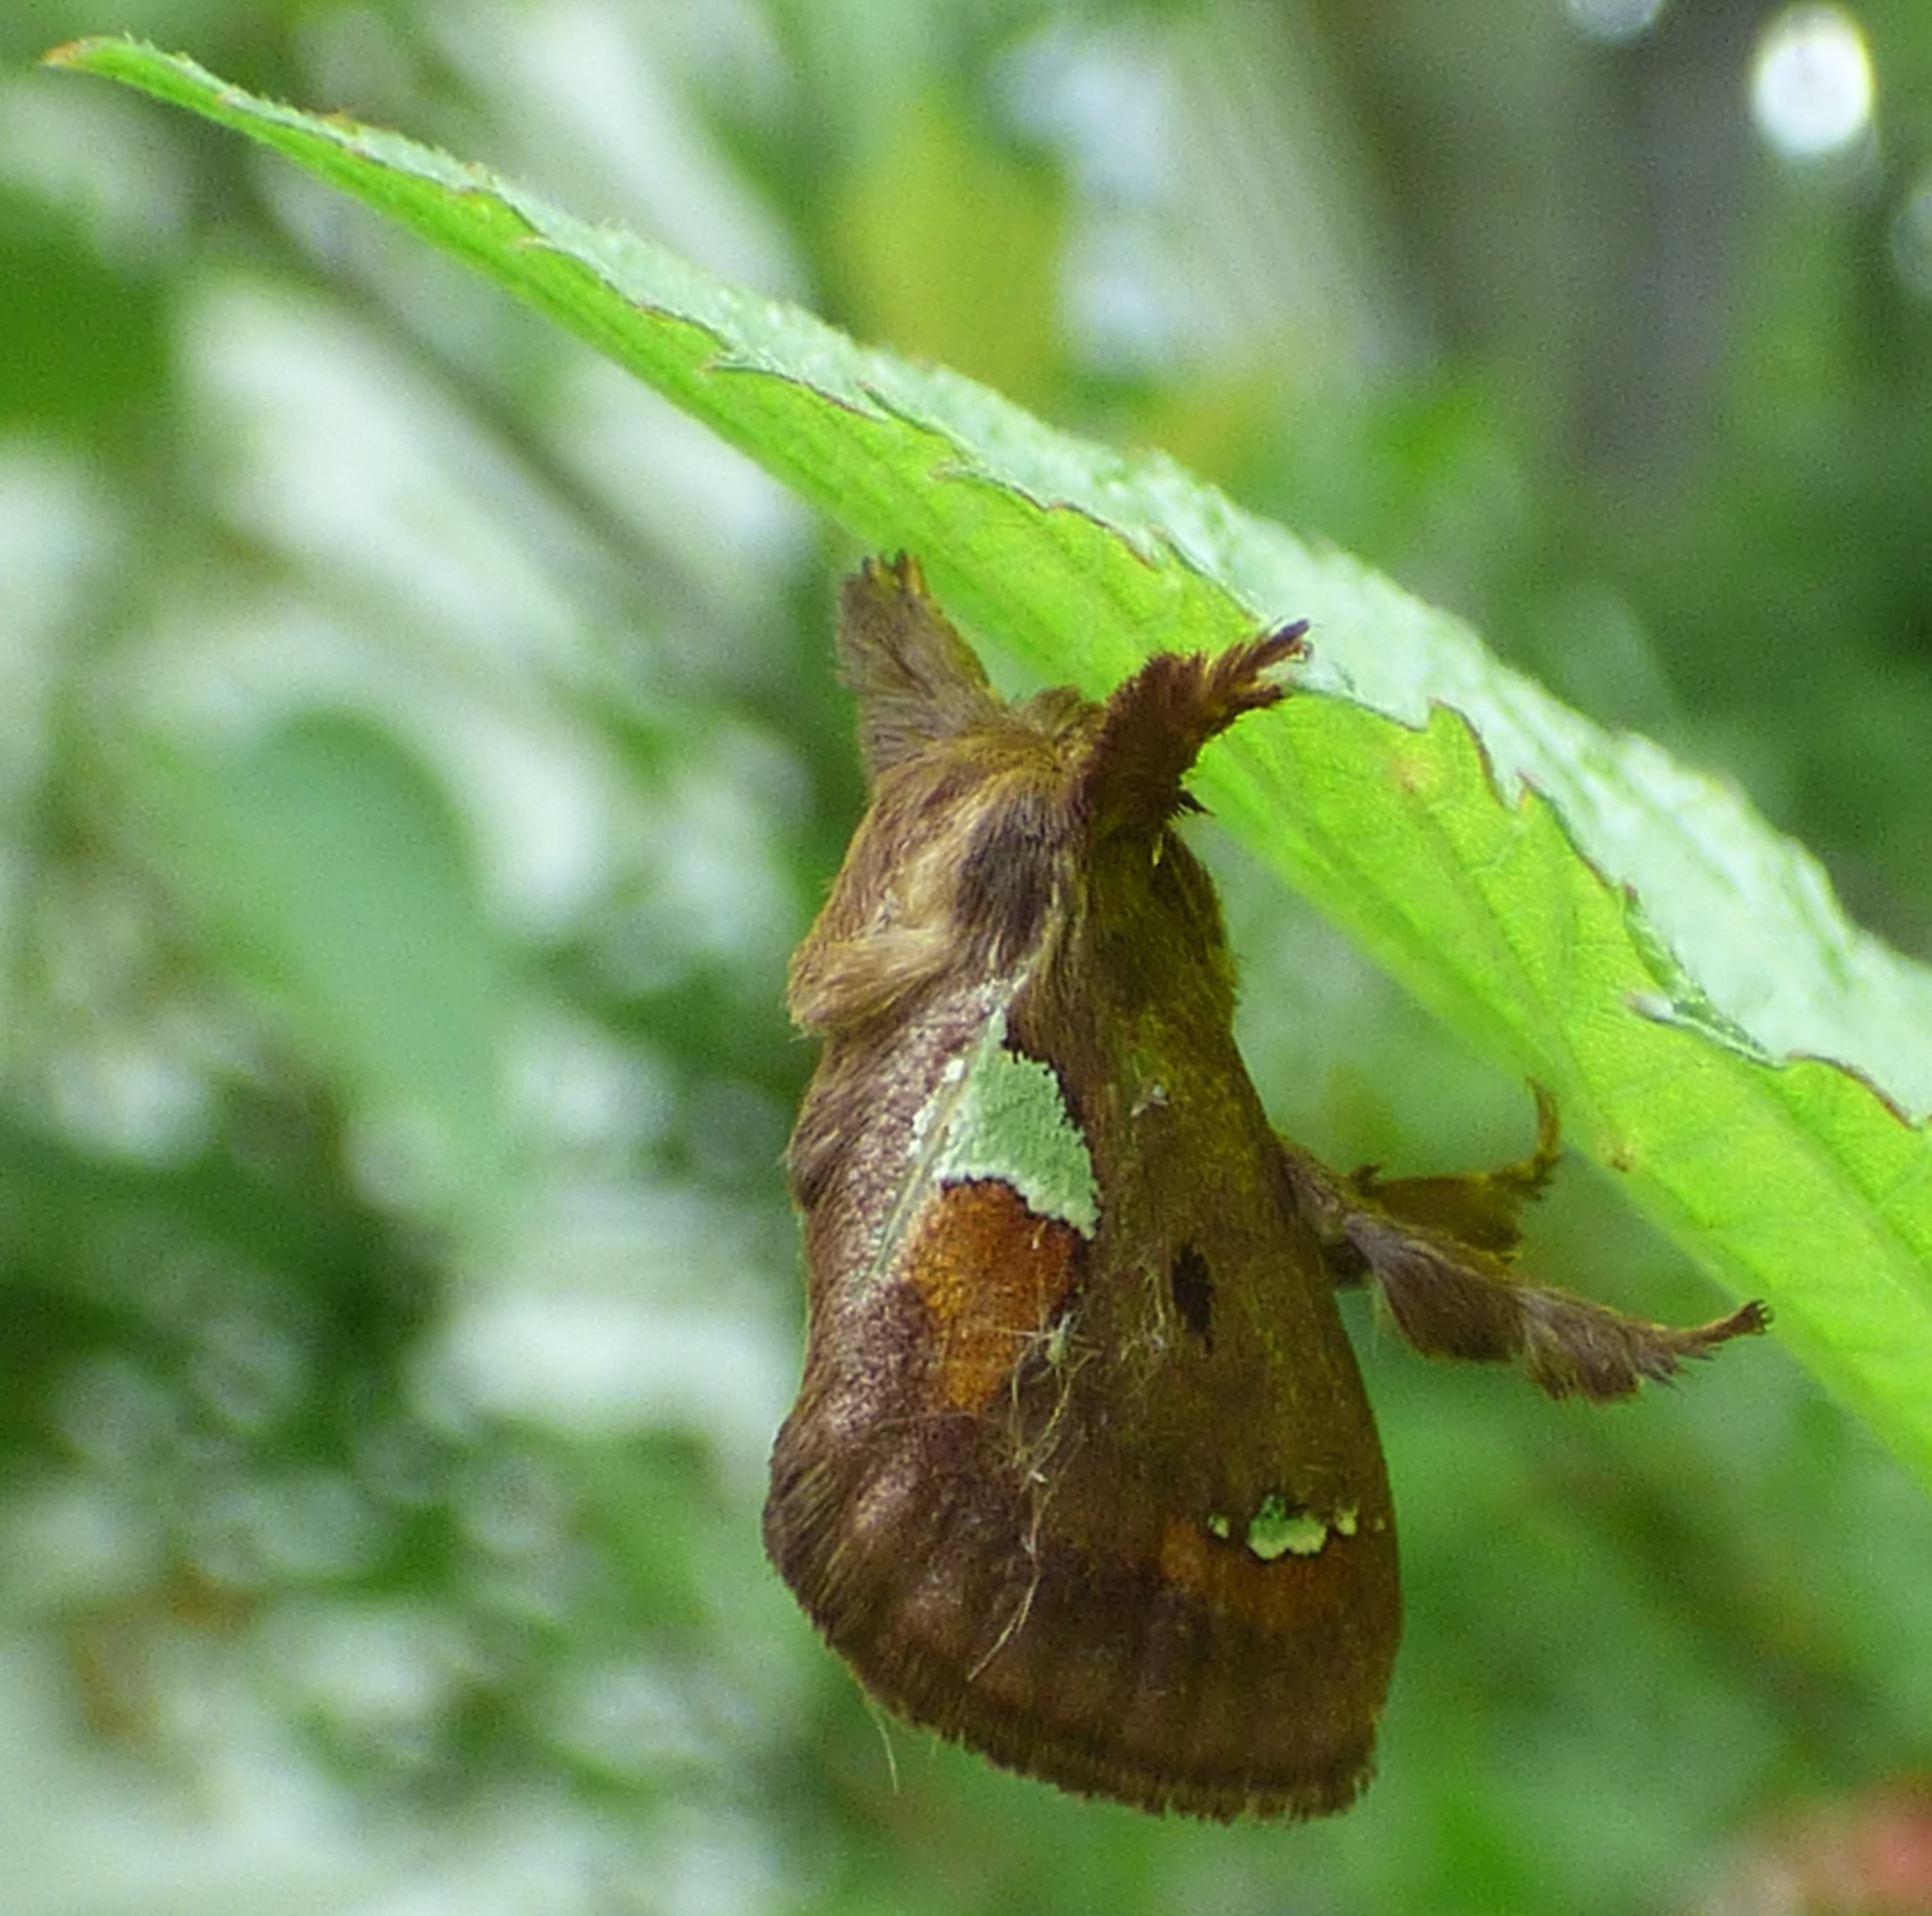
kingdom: Animalia
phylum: Arthropoda
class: Insecta
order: Lepidoptera
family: Limacodidae
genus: Euclea
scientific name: Euclea delphinii
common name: Spiny oak-slug moth
